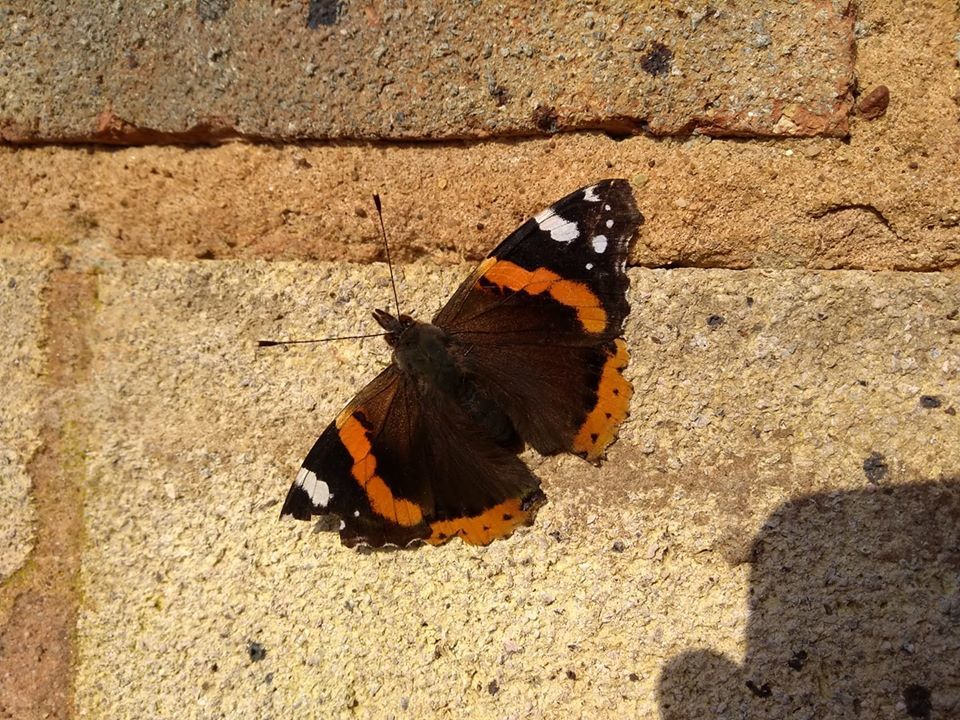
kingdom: Animalia
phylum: Arthropoda
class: Insecta
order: Lepidoptera
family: Nymphalidae
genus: Vanessa
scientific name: Vanessa atalanta
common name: Red admiral
